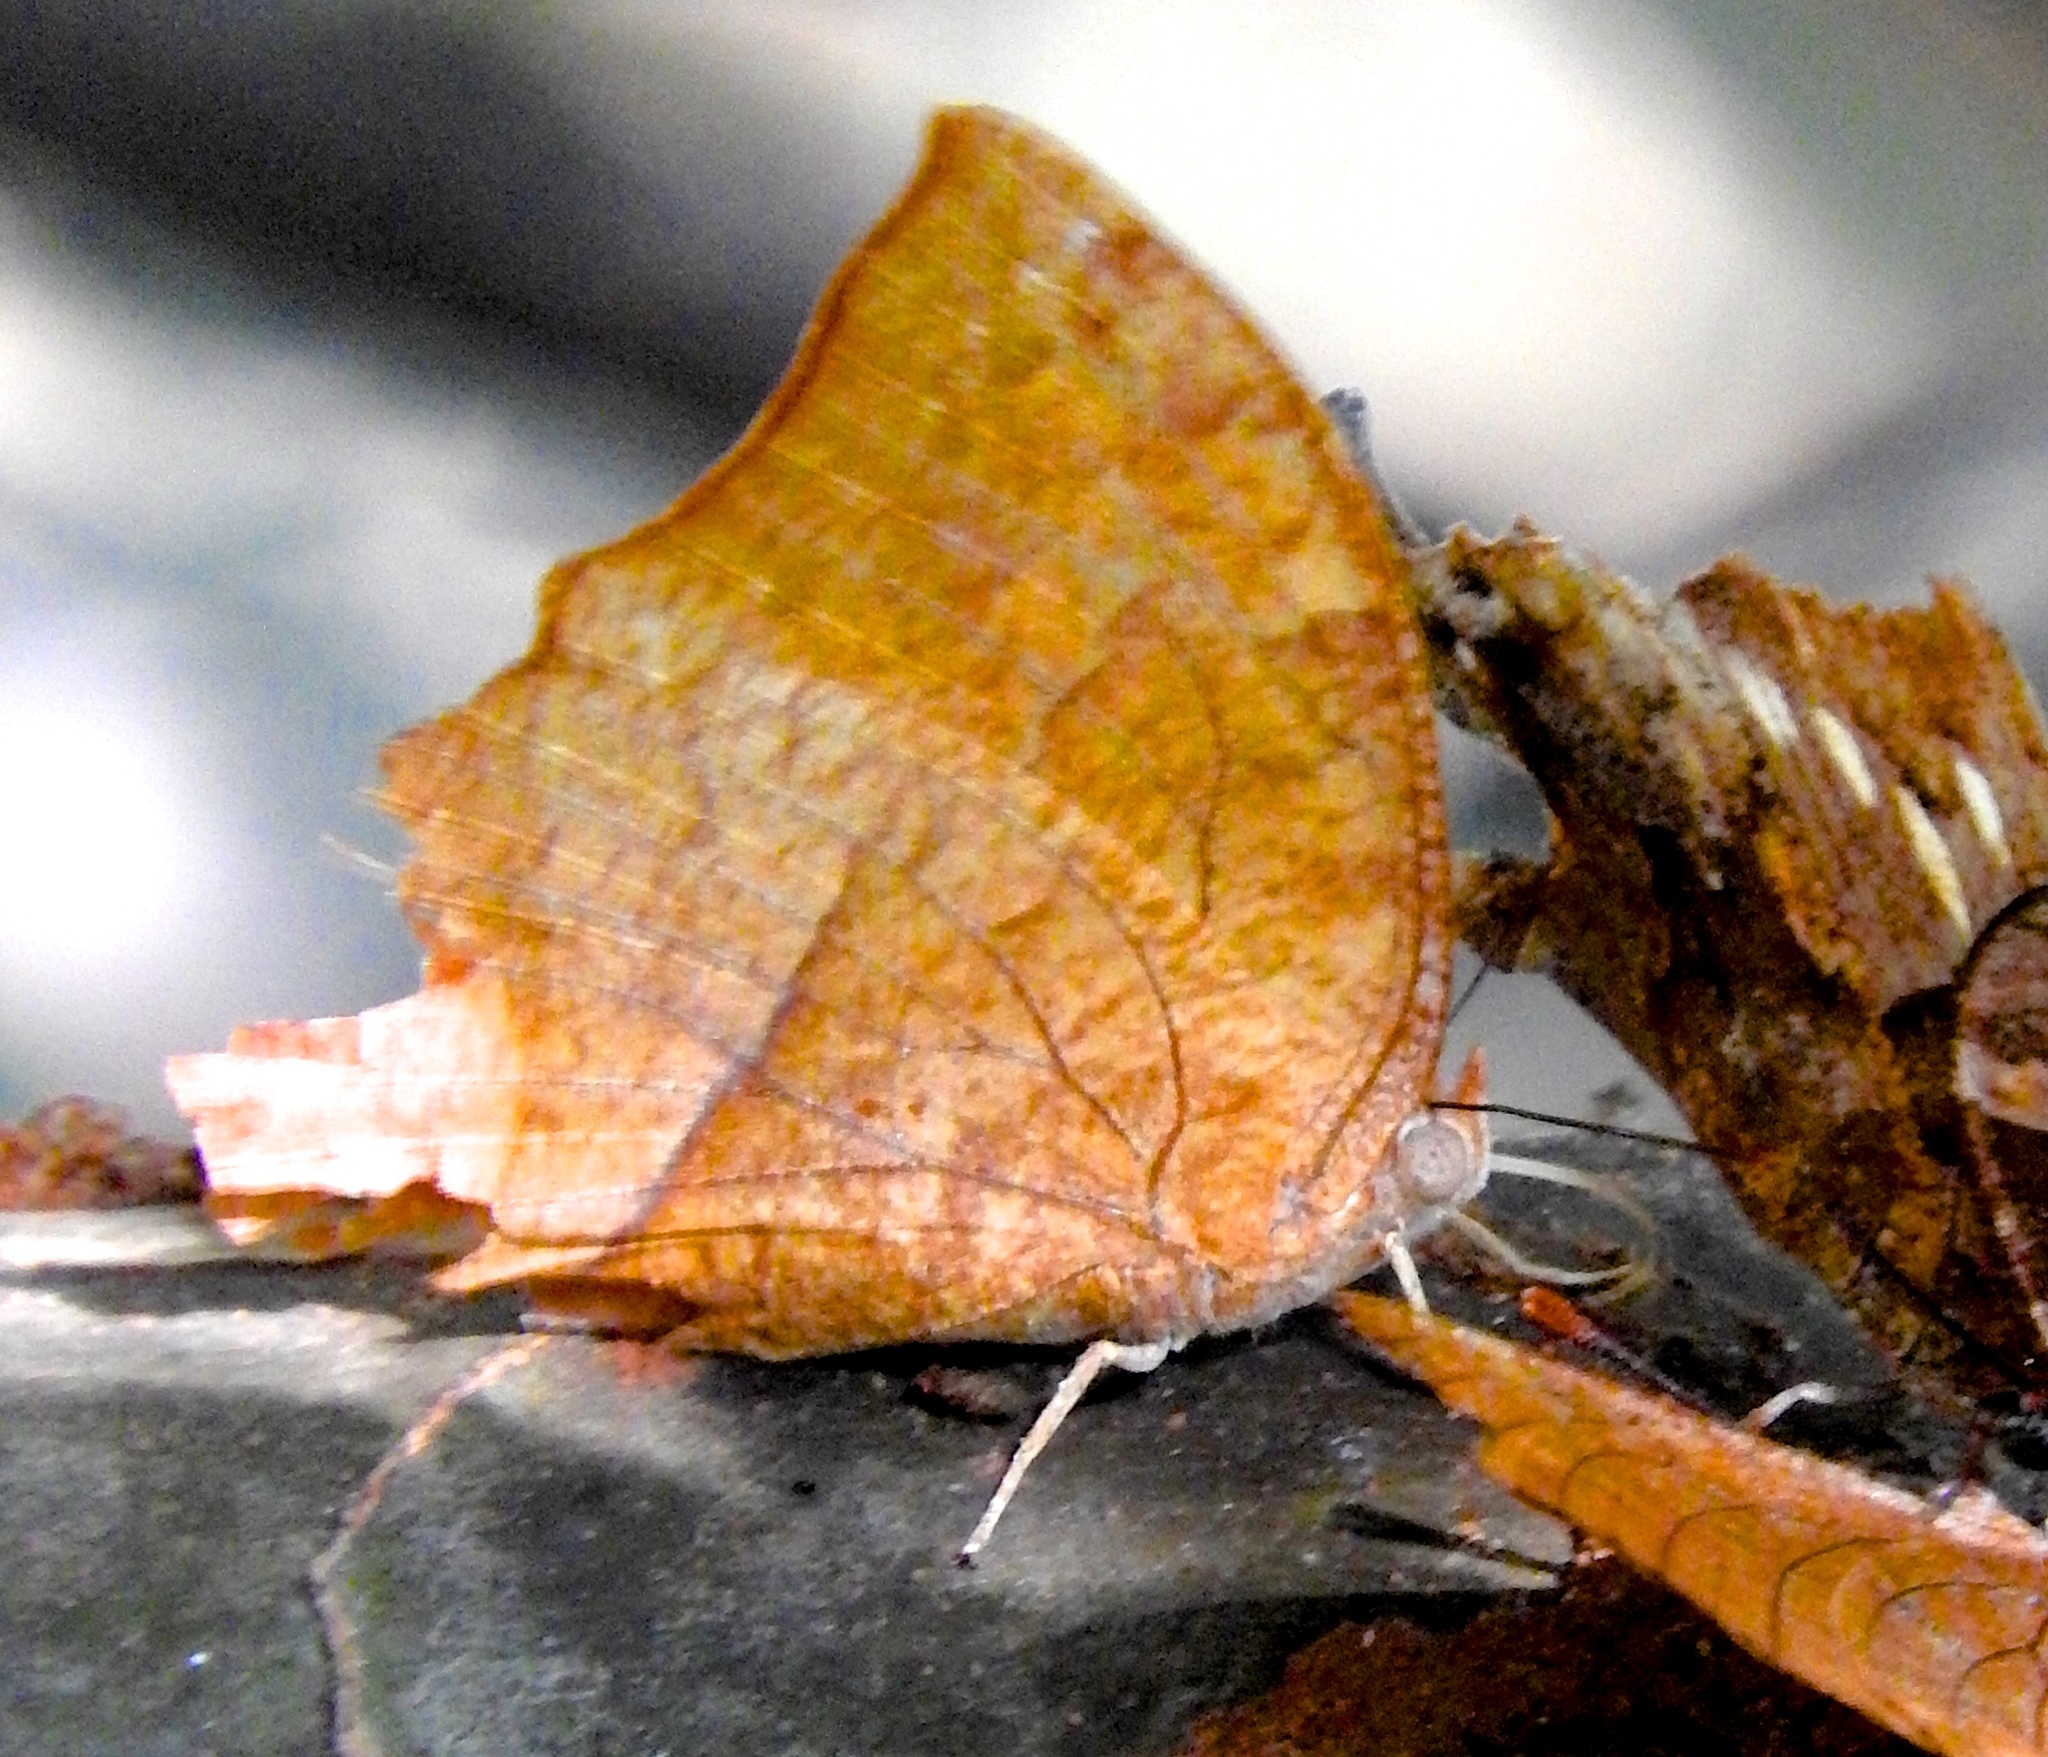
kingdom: Animalia
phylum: Arthropoda
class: Insecta
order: Lepidoptera
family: Nymphalidae
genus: Fountainea
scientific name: Fountainea
